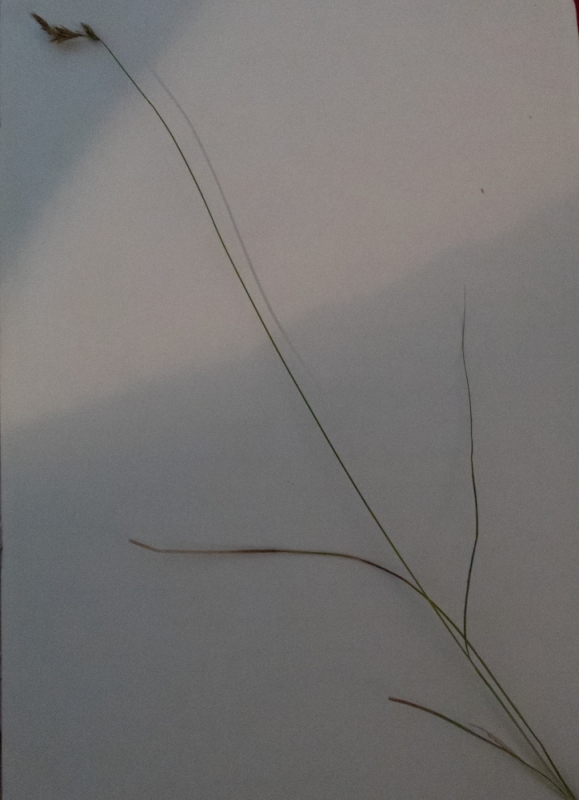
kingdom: Plantae
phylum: Tracheophyta
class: Liliopsida
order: Poales
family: Cyperaceae
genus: Carex
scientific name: Carex praecox
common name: Early sedge
